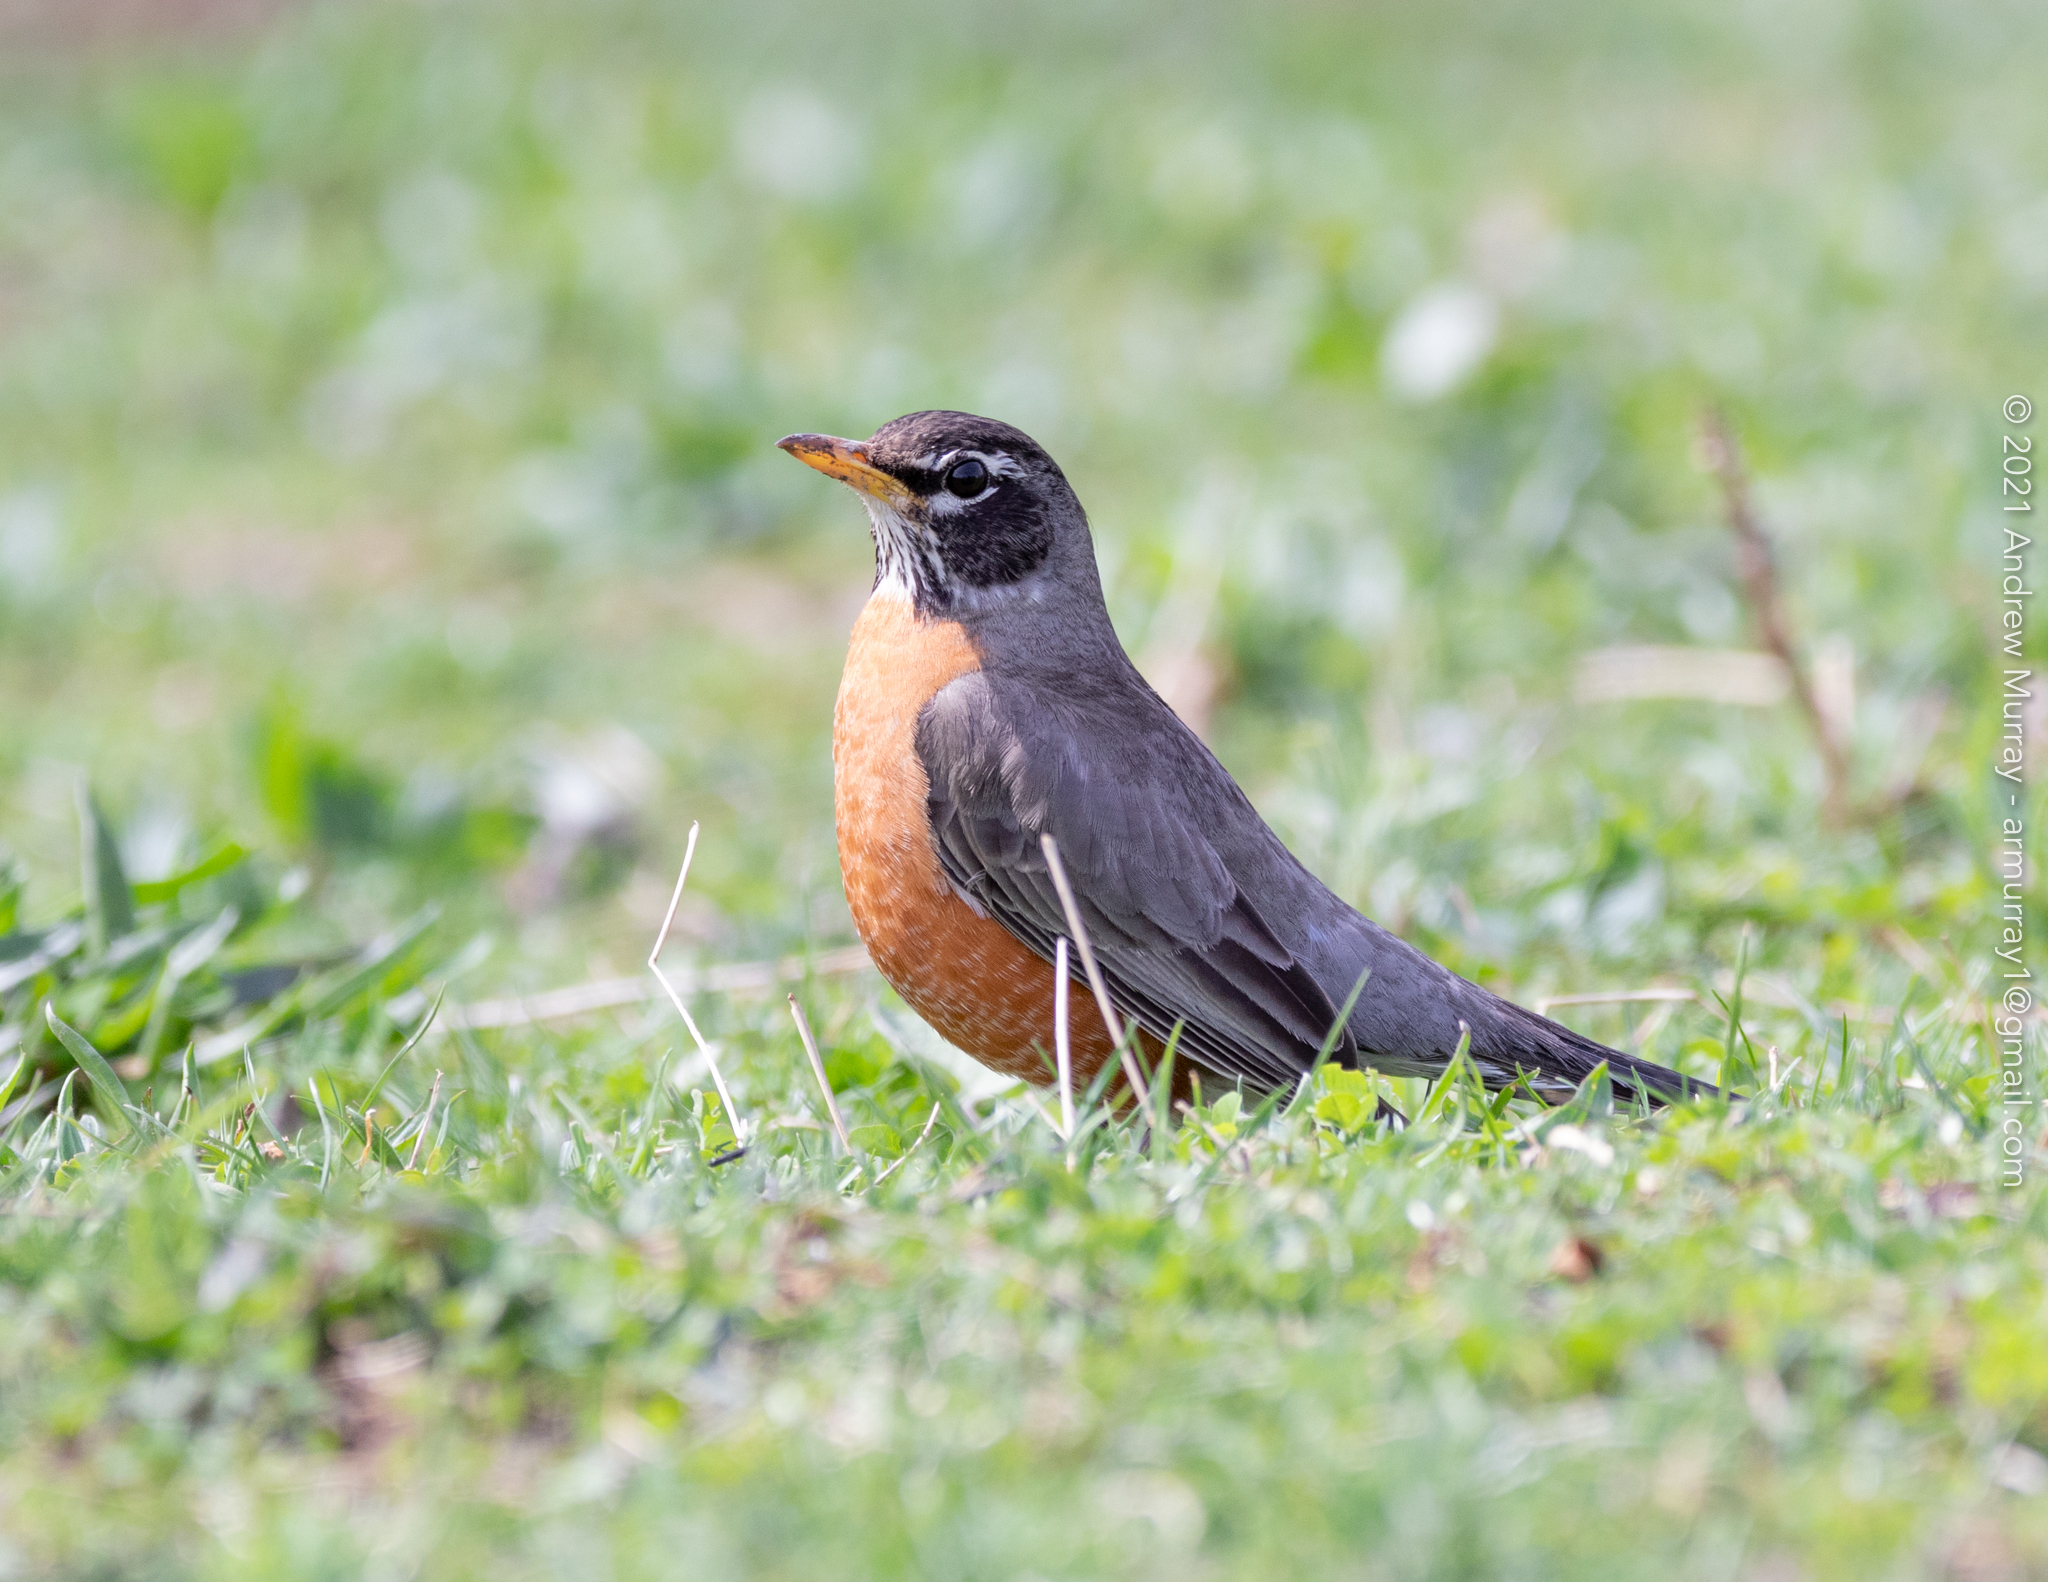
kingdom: Animalia
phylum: Chordata
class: Aves
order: Passeriformes
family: Turdidae
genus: Turdus
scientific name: Turdus migratorius
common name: American robin
